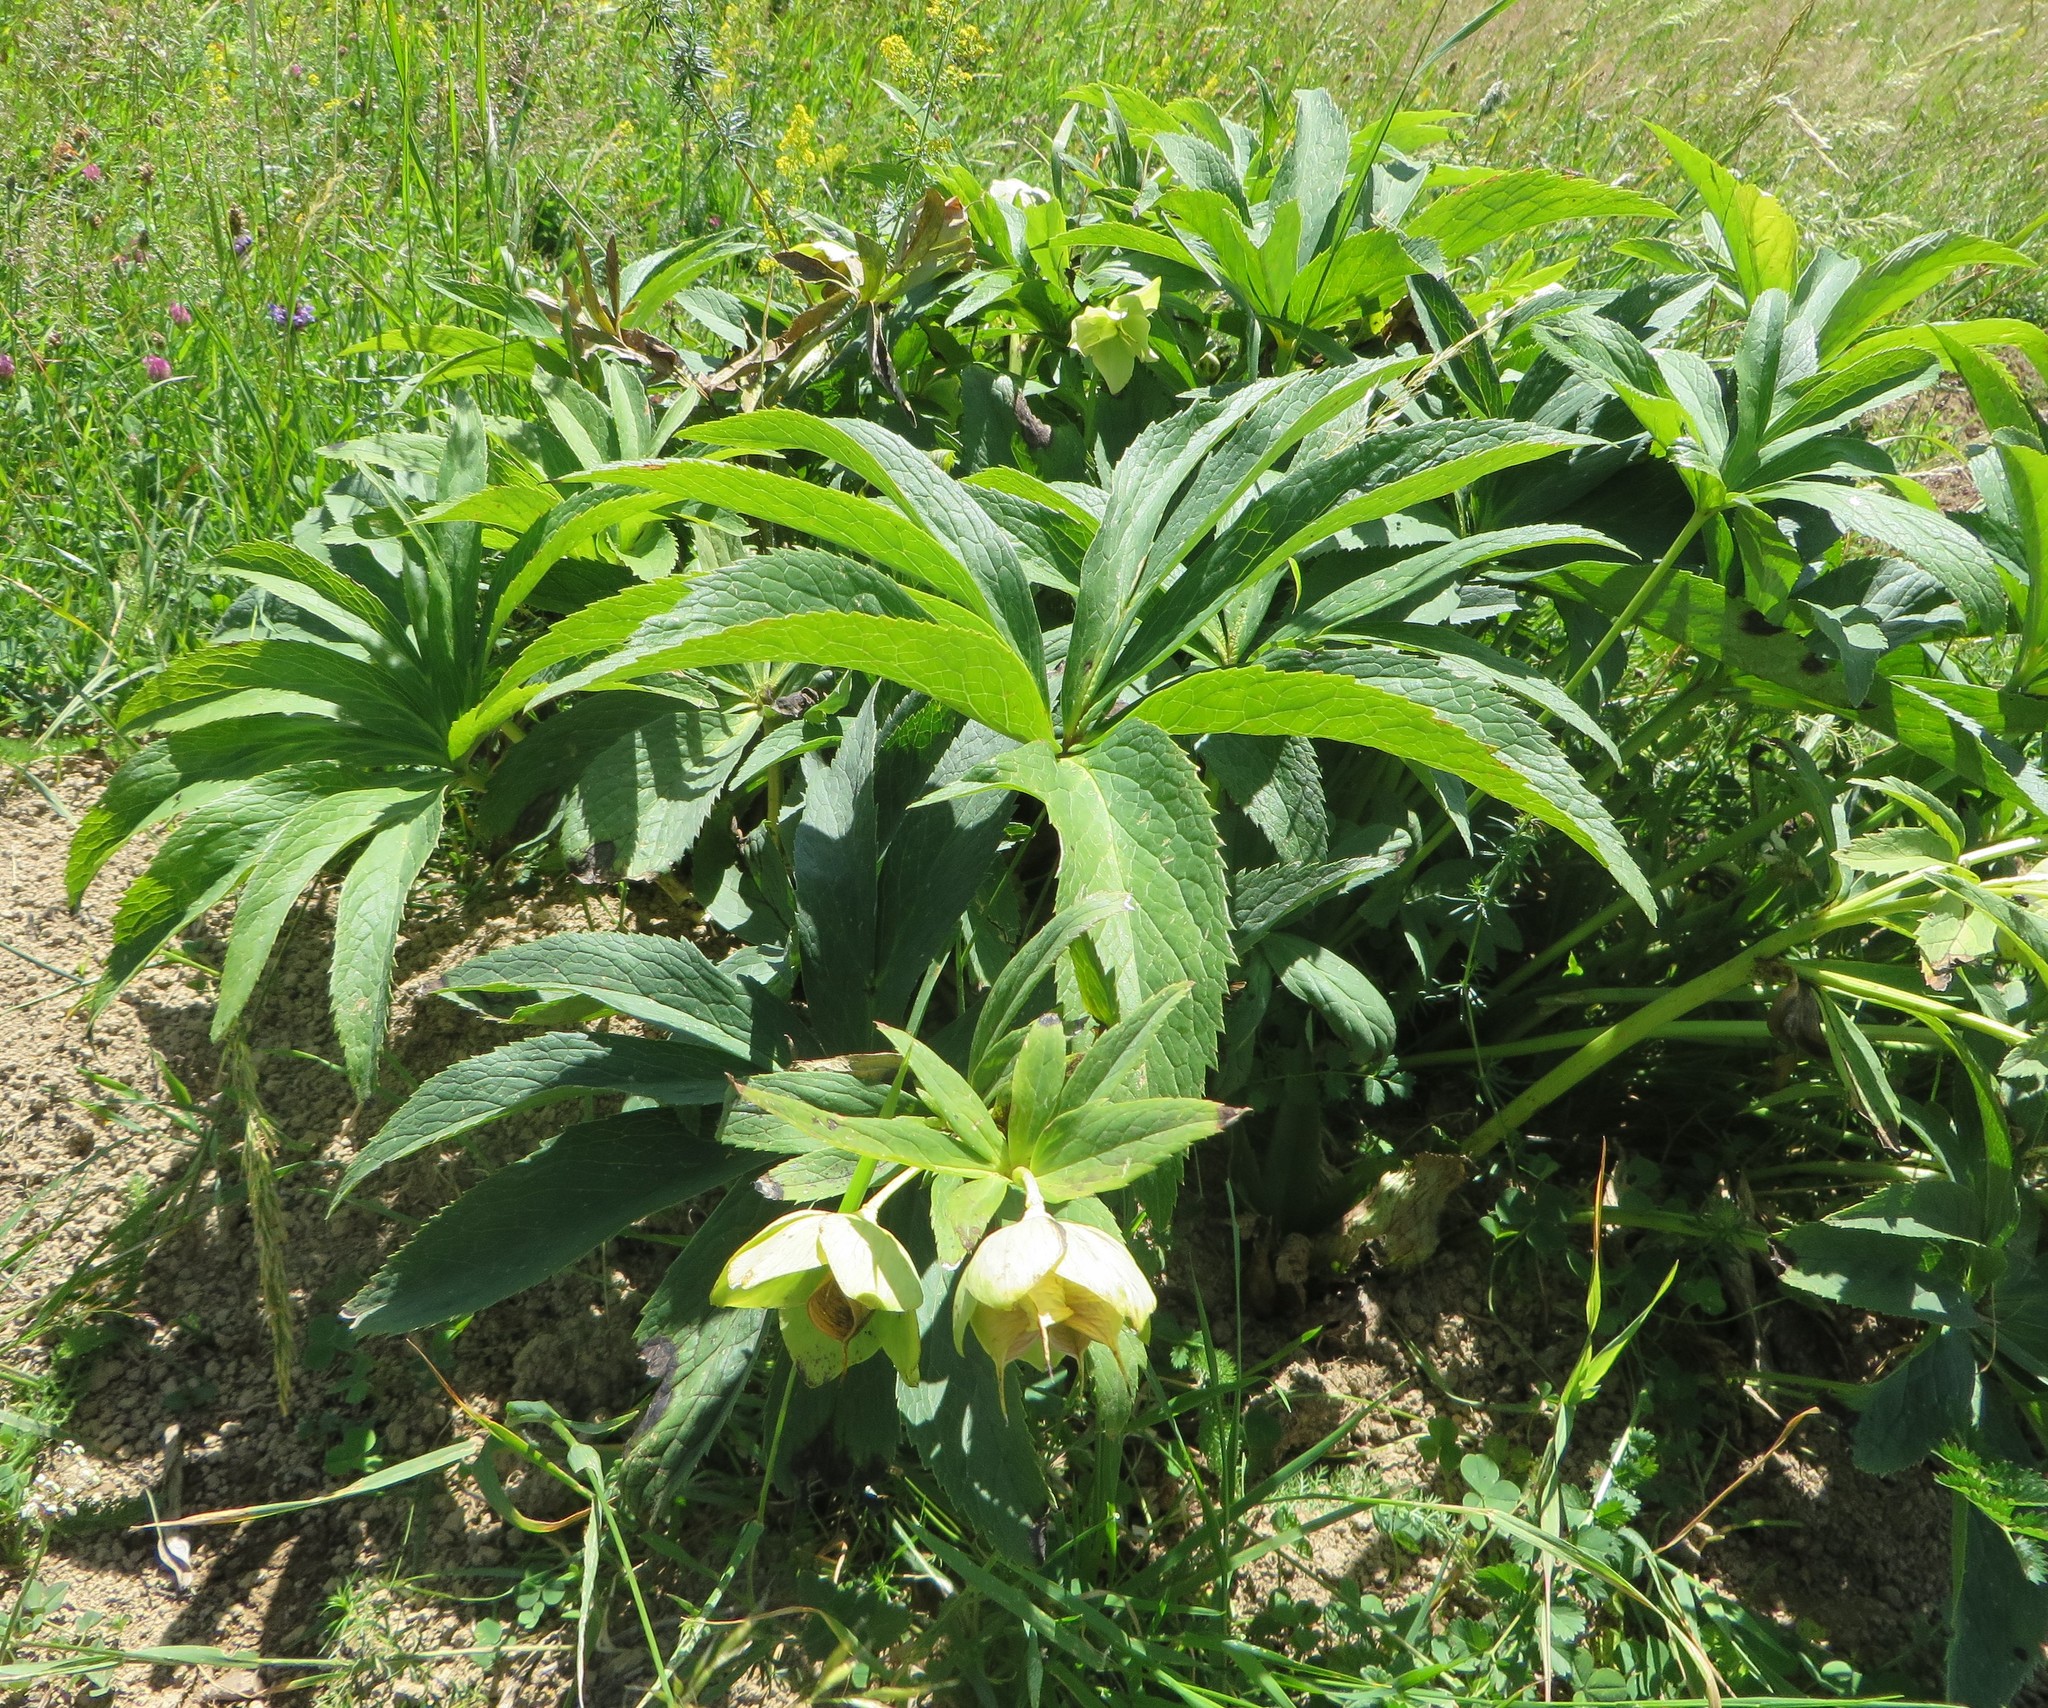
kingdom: Plantae
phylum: Tracheophyta
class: Magnoliopsida
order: Ranunculales
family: Ranunculaceae
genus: Helleborus
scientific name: Helleborus viridis
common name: Green hellebore
